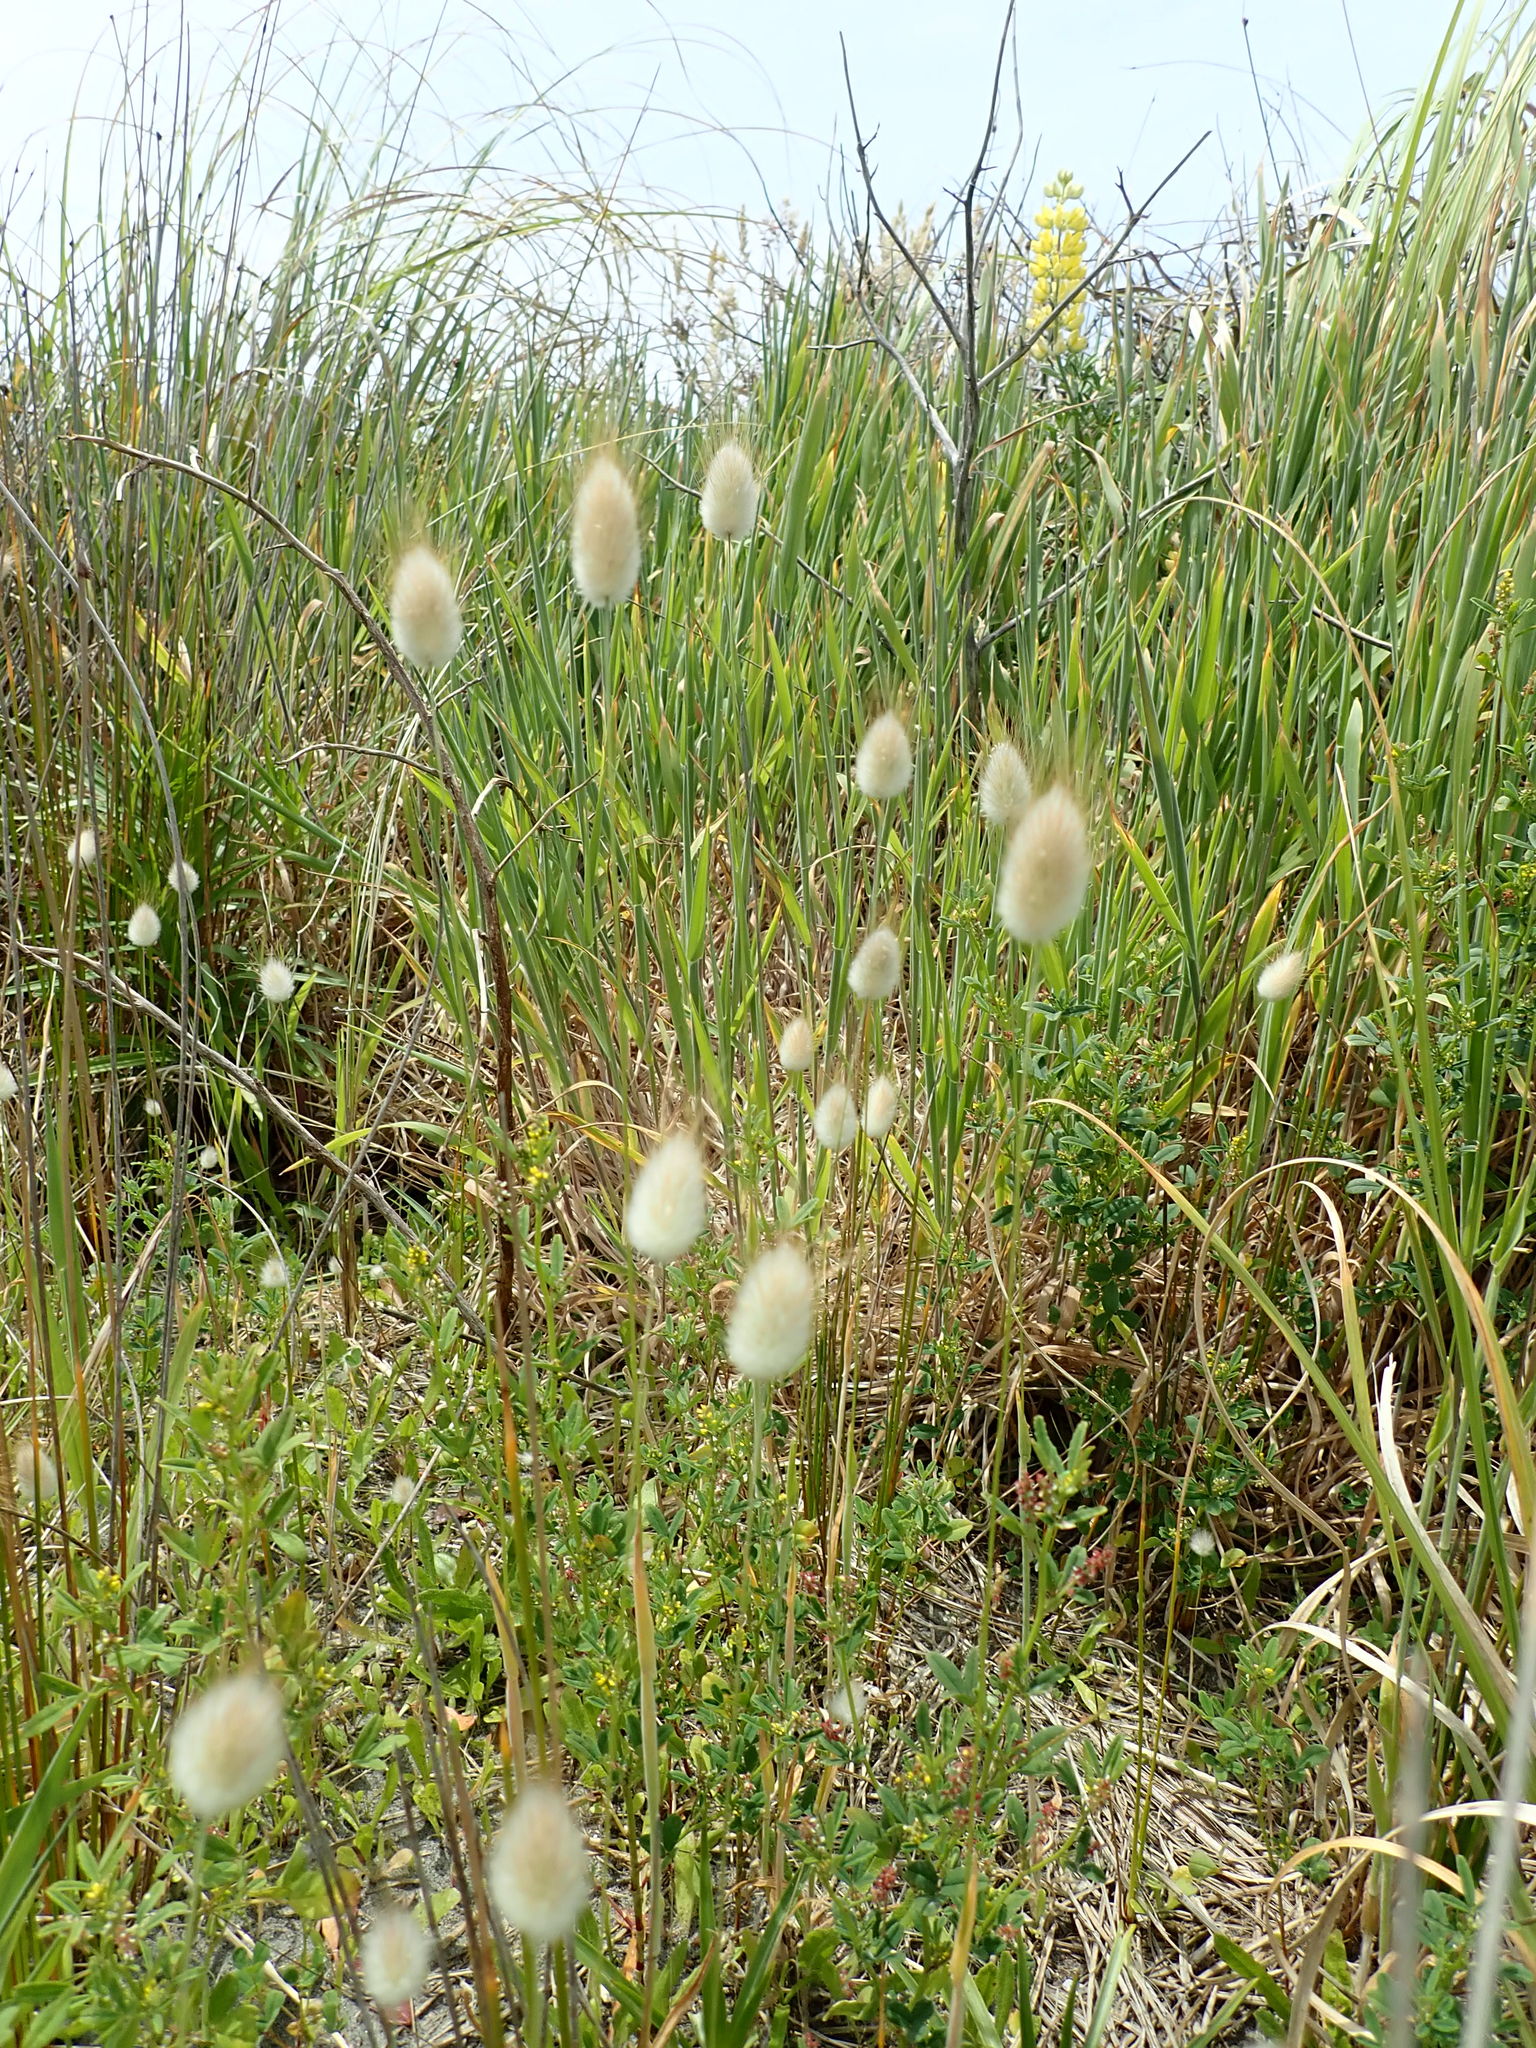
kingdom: Plantae
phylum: Tracheophyta
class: Liliopsida
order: Poales
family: Poaceae
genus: Lagurus
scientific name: Lagurus ovatus
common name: Hare's-tail
